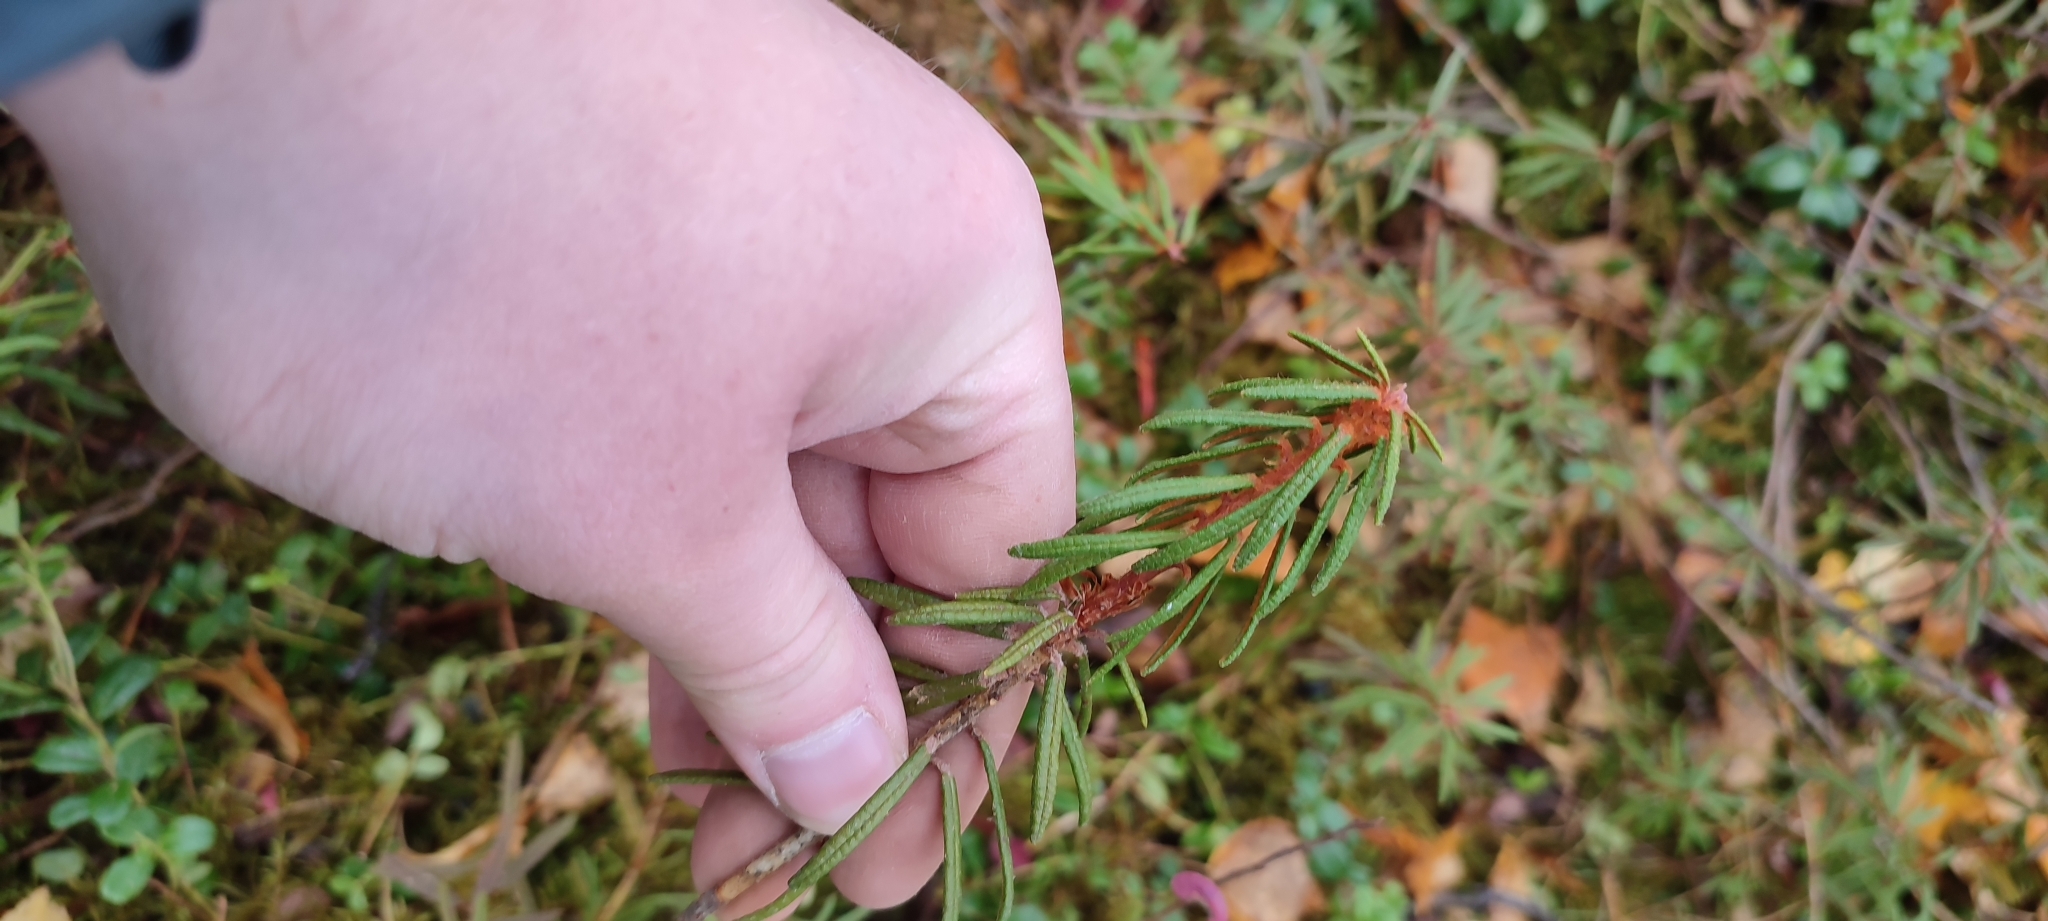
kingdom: Plantae
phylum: Tracheophyta
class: Magnoliopsida
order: Ericales
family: Ericaceae
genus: Rhododendron
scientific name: Rhododendron tomentosum
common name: Marsh labrador tea
